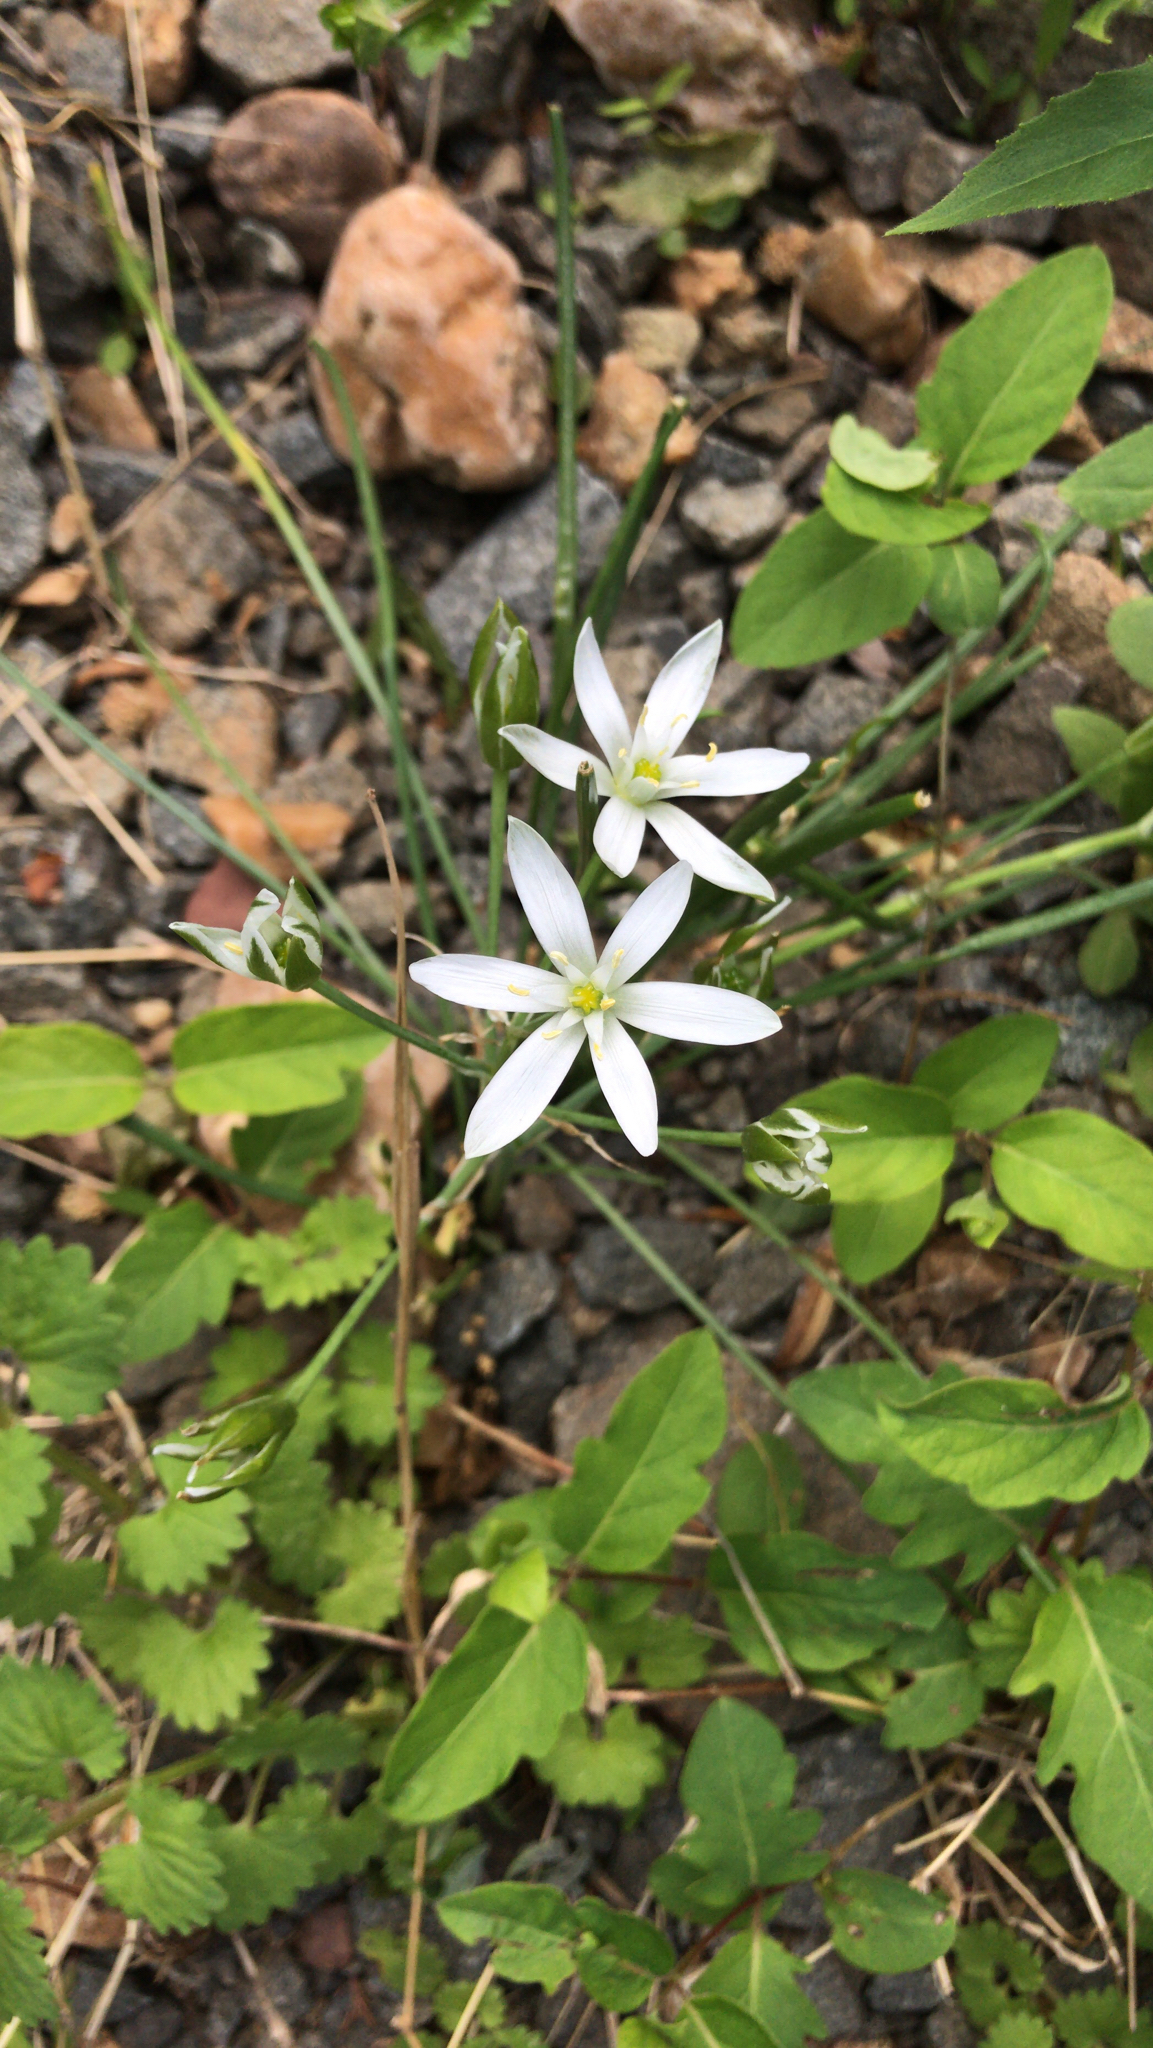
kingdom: Plantae
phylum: Tracheophyta
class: Liliopsida
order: Asparagales
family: Asparagaceae
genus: Ornithogalum
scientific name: Ornithogalum umbellatum
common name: Garden star-of-bethlehem
